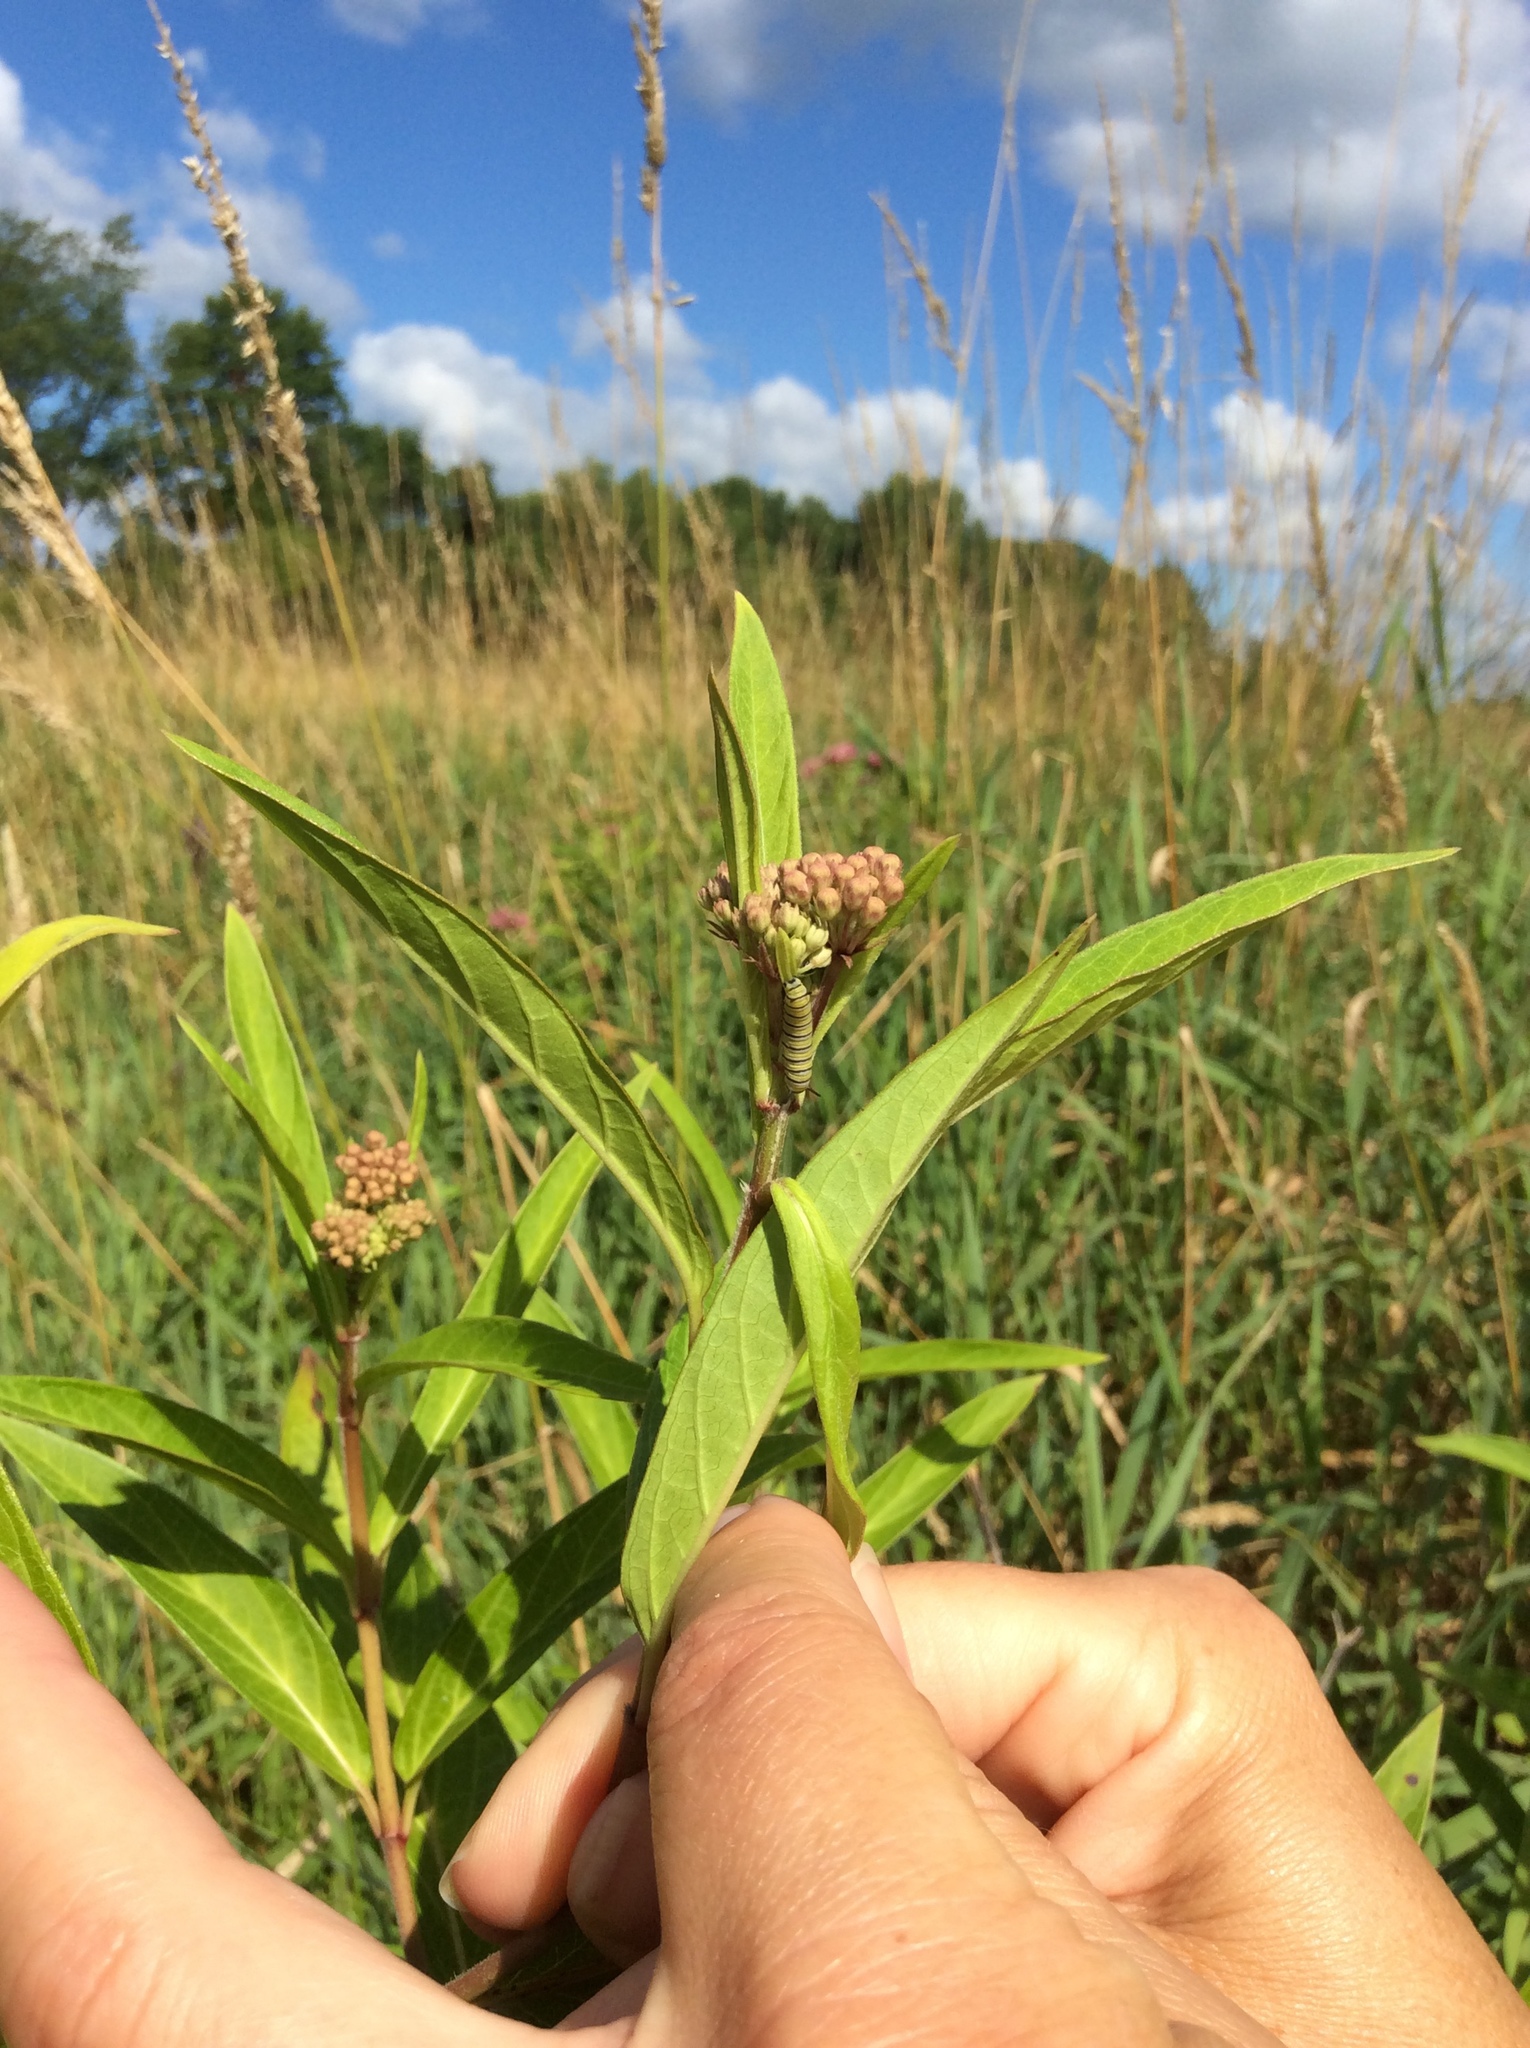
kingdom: Animalia
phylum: Arthropoda
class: Insecta
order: Lepidoptera
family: Nymphalidae
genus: Danaus
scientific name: Danaus plexippus
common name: Monarch
